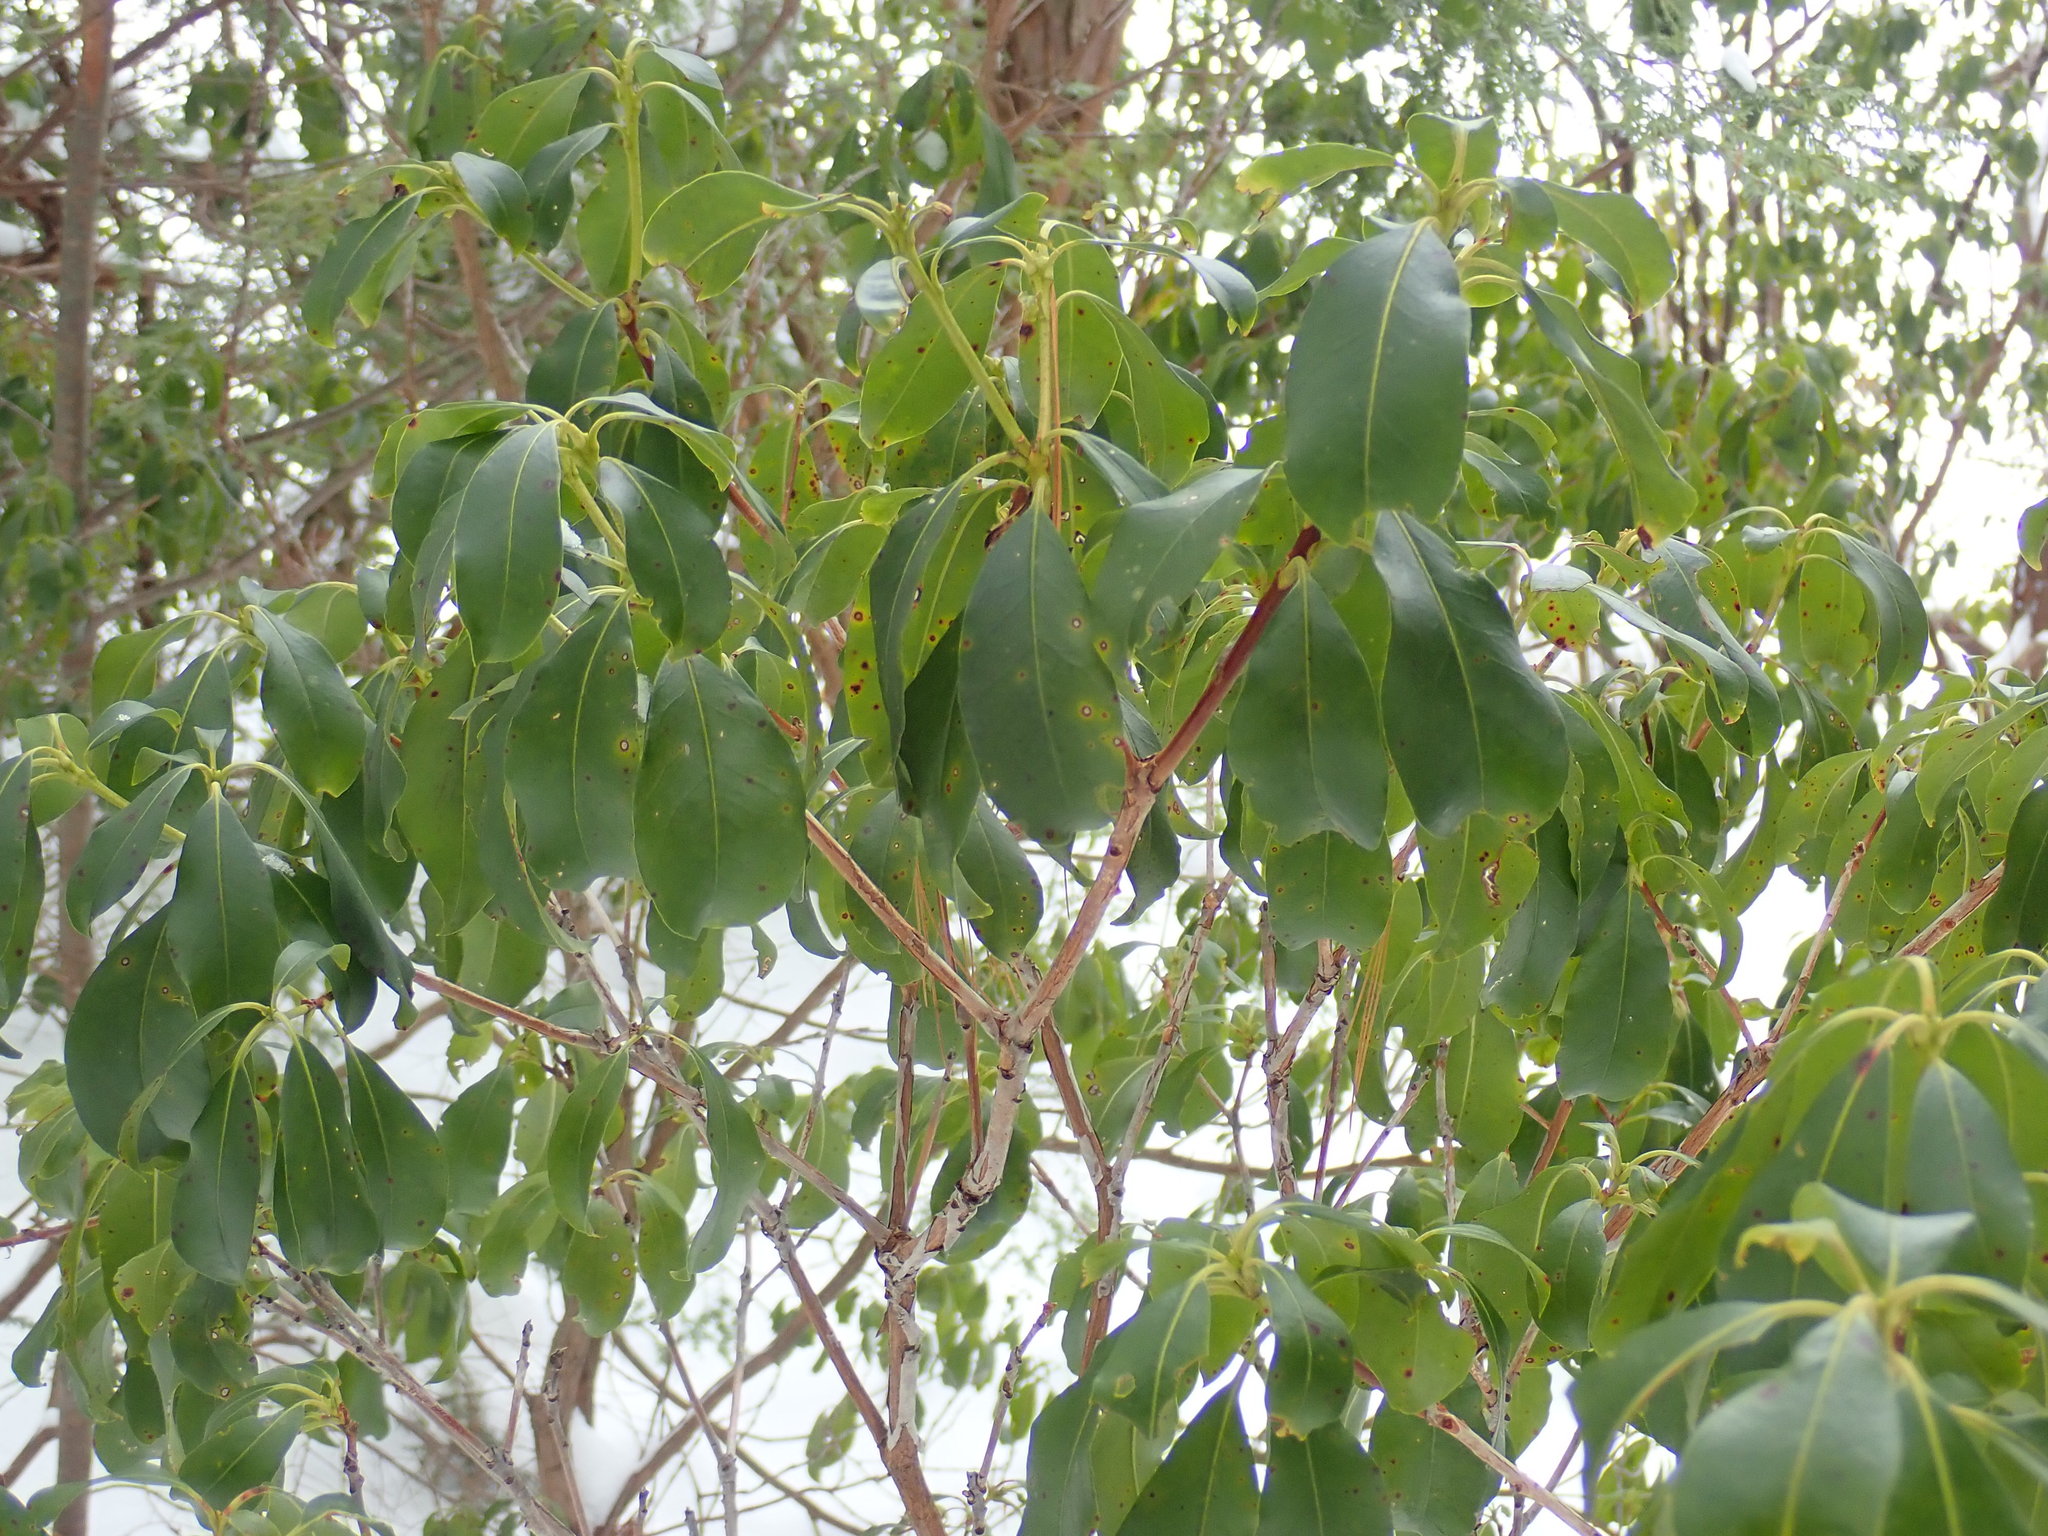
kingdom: Plantae
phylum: Tracheophyta
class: Magnoliopsida
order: Ericales
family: Ericaceae
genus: Kalmia
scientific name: Kalmia latifolia
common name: Mountain-laurel
